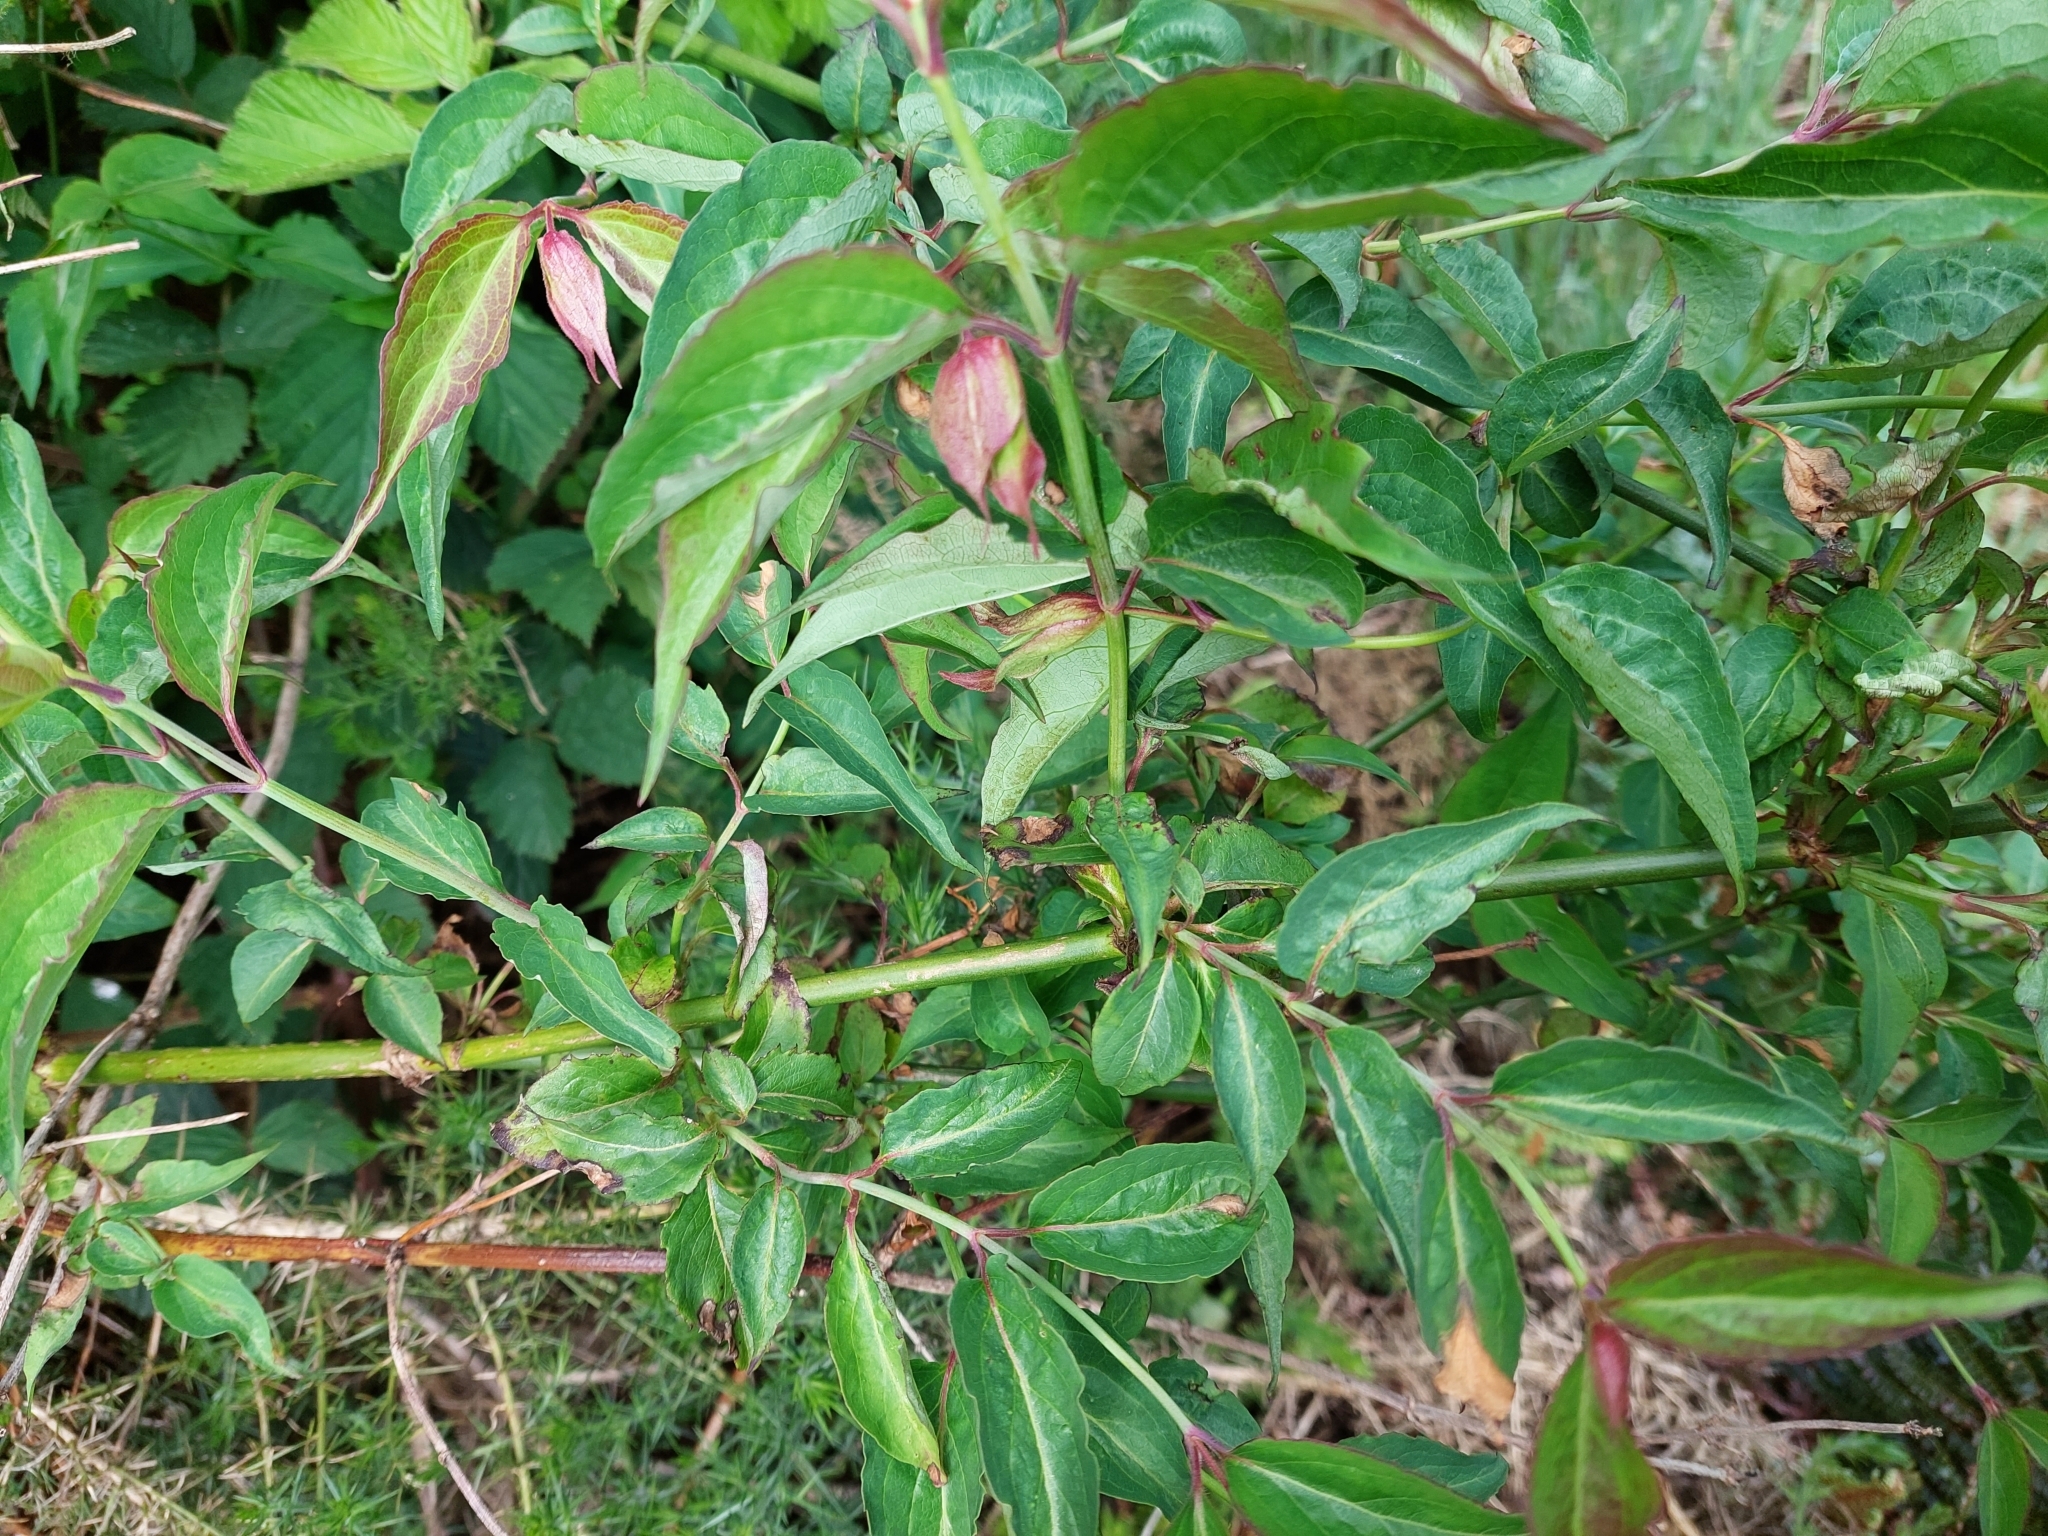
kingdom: Plantae
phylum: Tracheophyta
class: Magnoliopsida
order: Dipsacales
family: Caprifoliaceae
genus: Leycesteria
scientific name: Leycesteria formosa
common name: Himalayan honeysuckle
